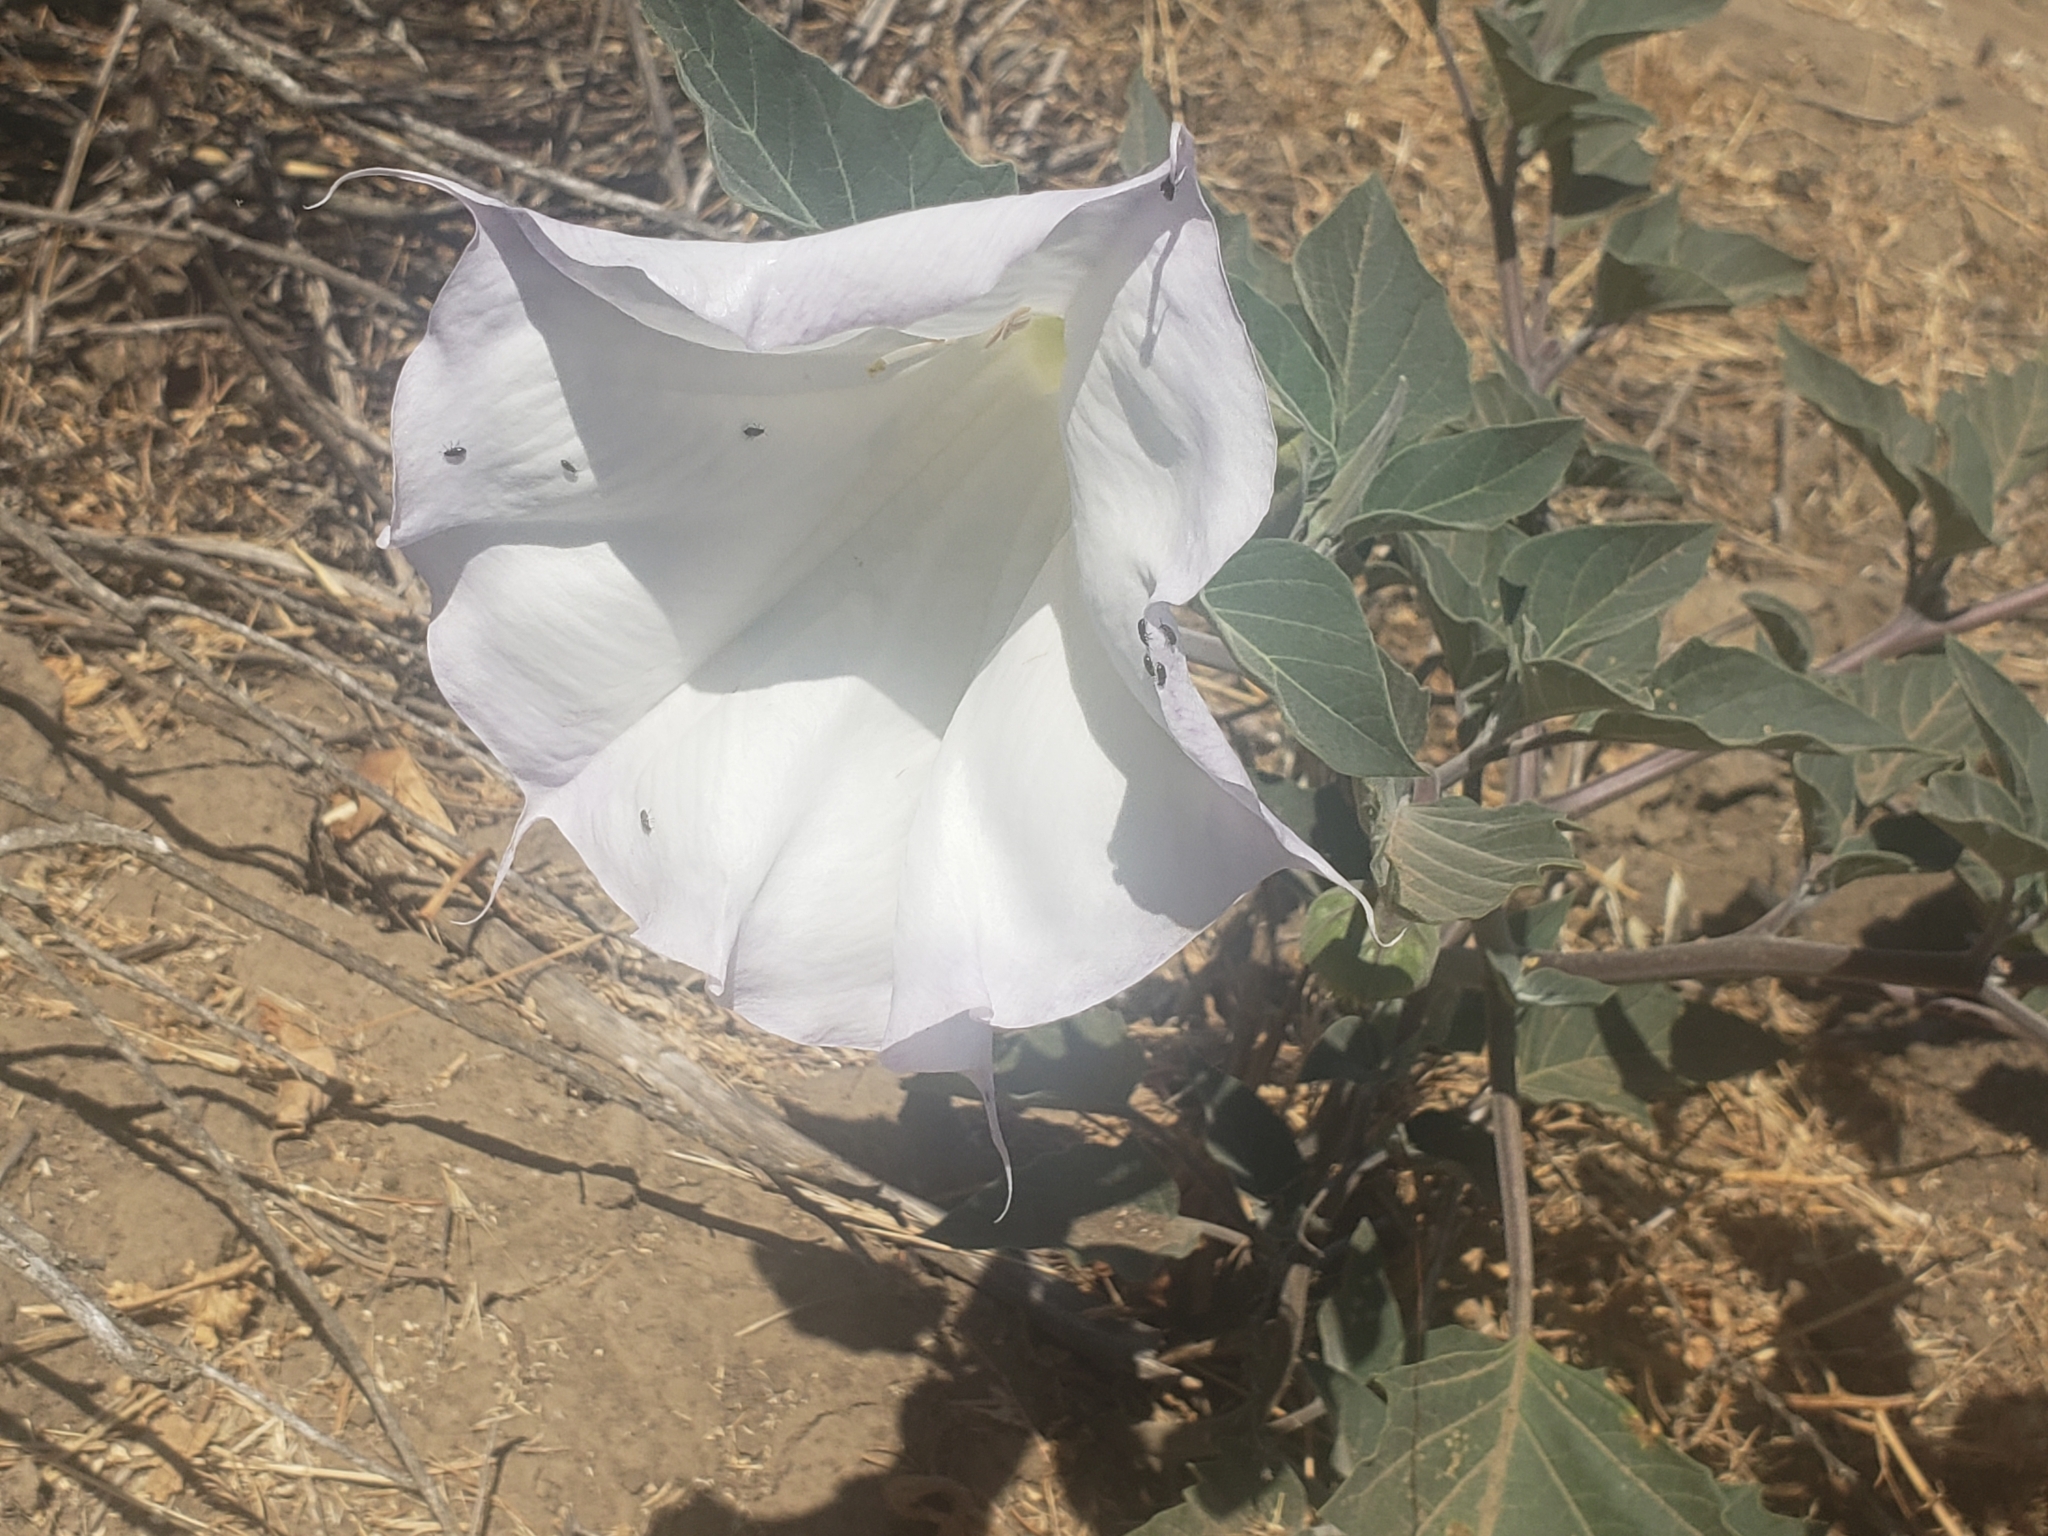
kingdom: Plantae
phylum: Tracheophyta
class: Magnoliopsida
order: Solanales
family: Solanaceae
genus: Datura
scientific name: Datura wrightii
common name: Sacred thorn-apple
